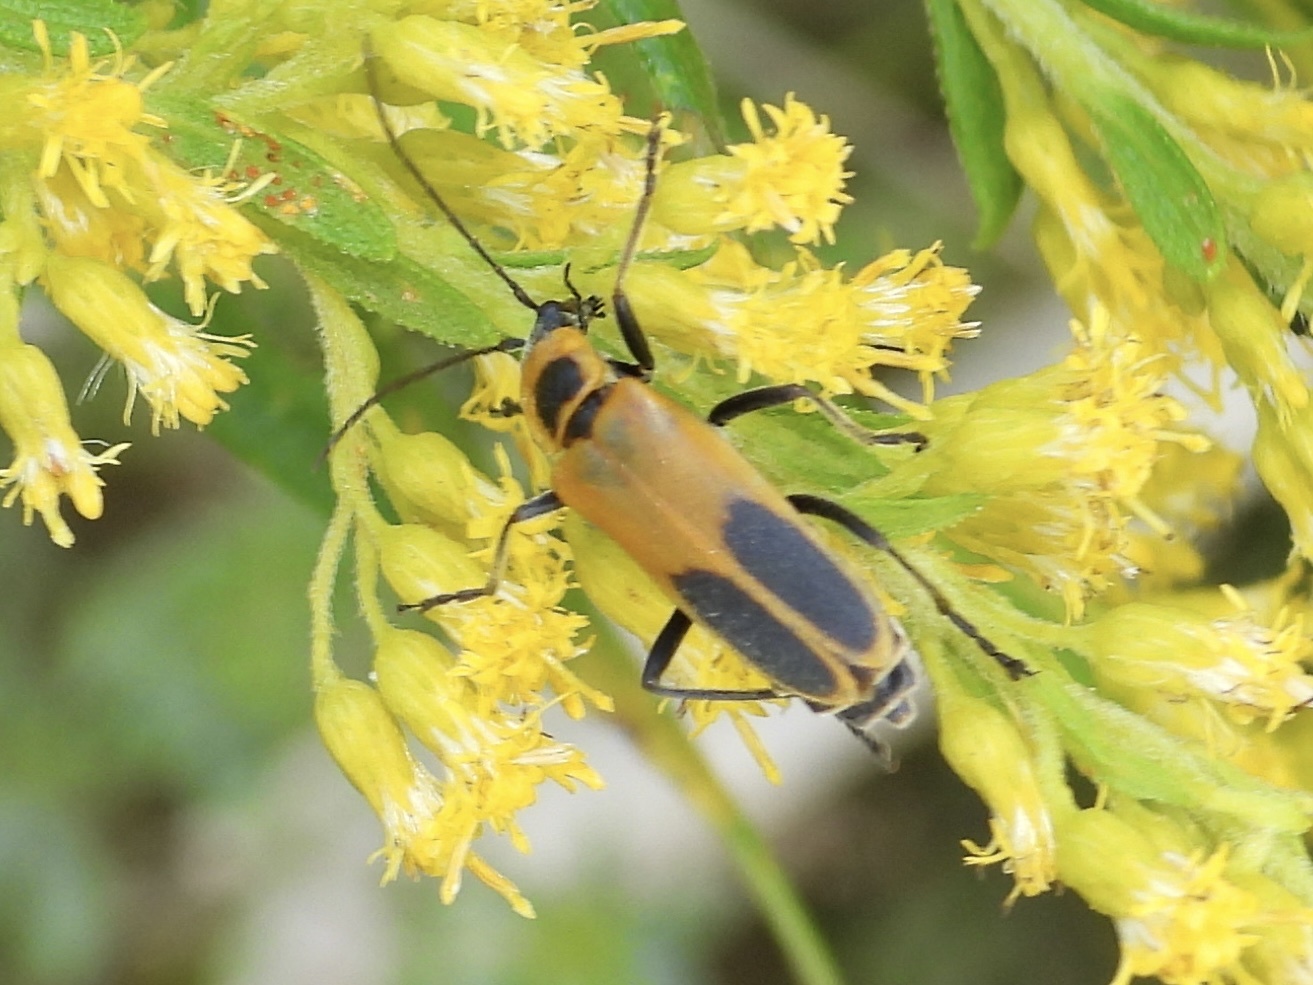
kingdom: Animalia
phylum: Arthropoda
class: Insecta
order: Coleoptera
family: Cantharidae
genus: Chauliognathus
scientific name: Chauliognathus pensylvanicus
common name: Goldenrod soldier beetle
